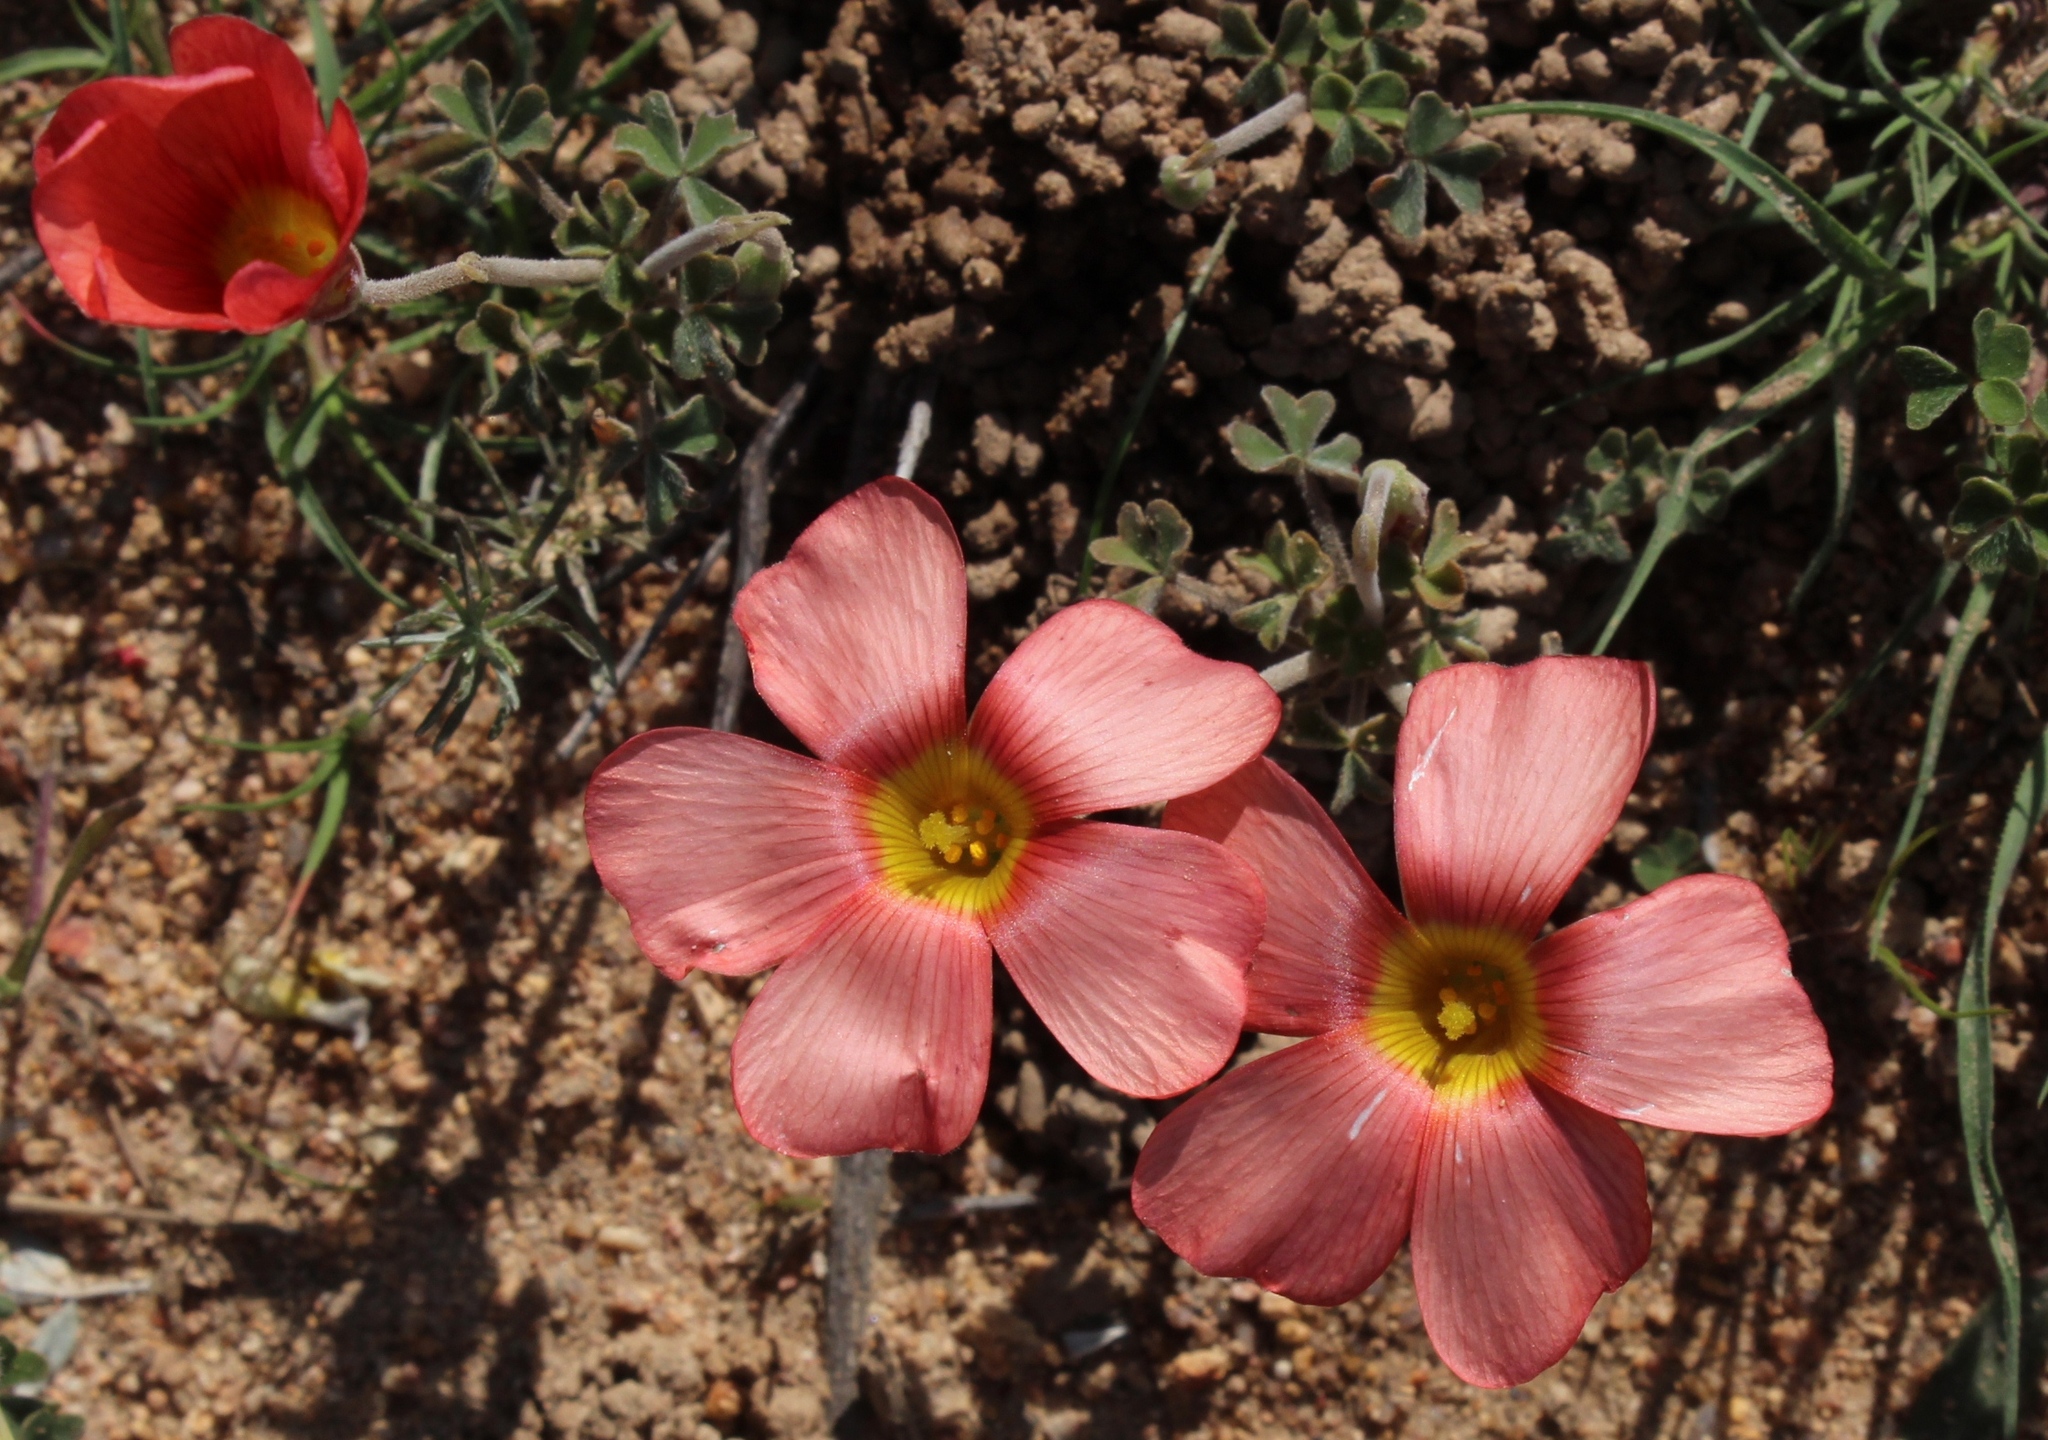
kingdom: Plantae
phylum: Tracheophyta
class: Magnoliopsida
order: Oxalidales
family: Oxalidaceae
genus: Oxalis
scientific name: Oxalis obtusa
